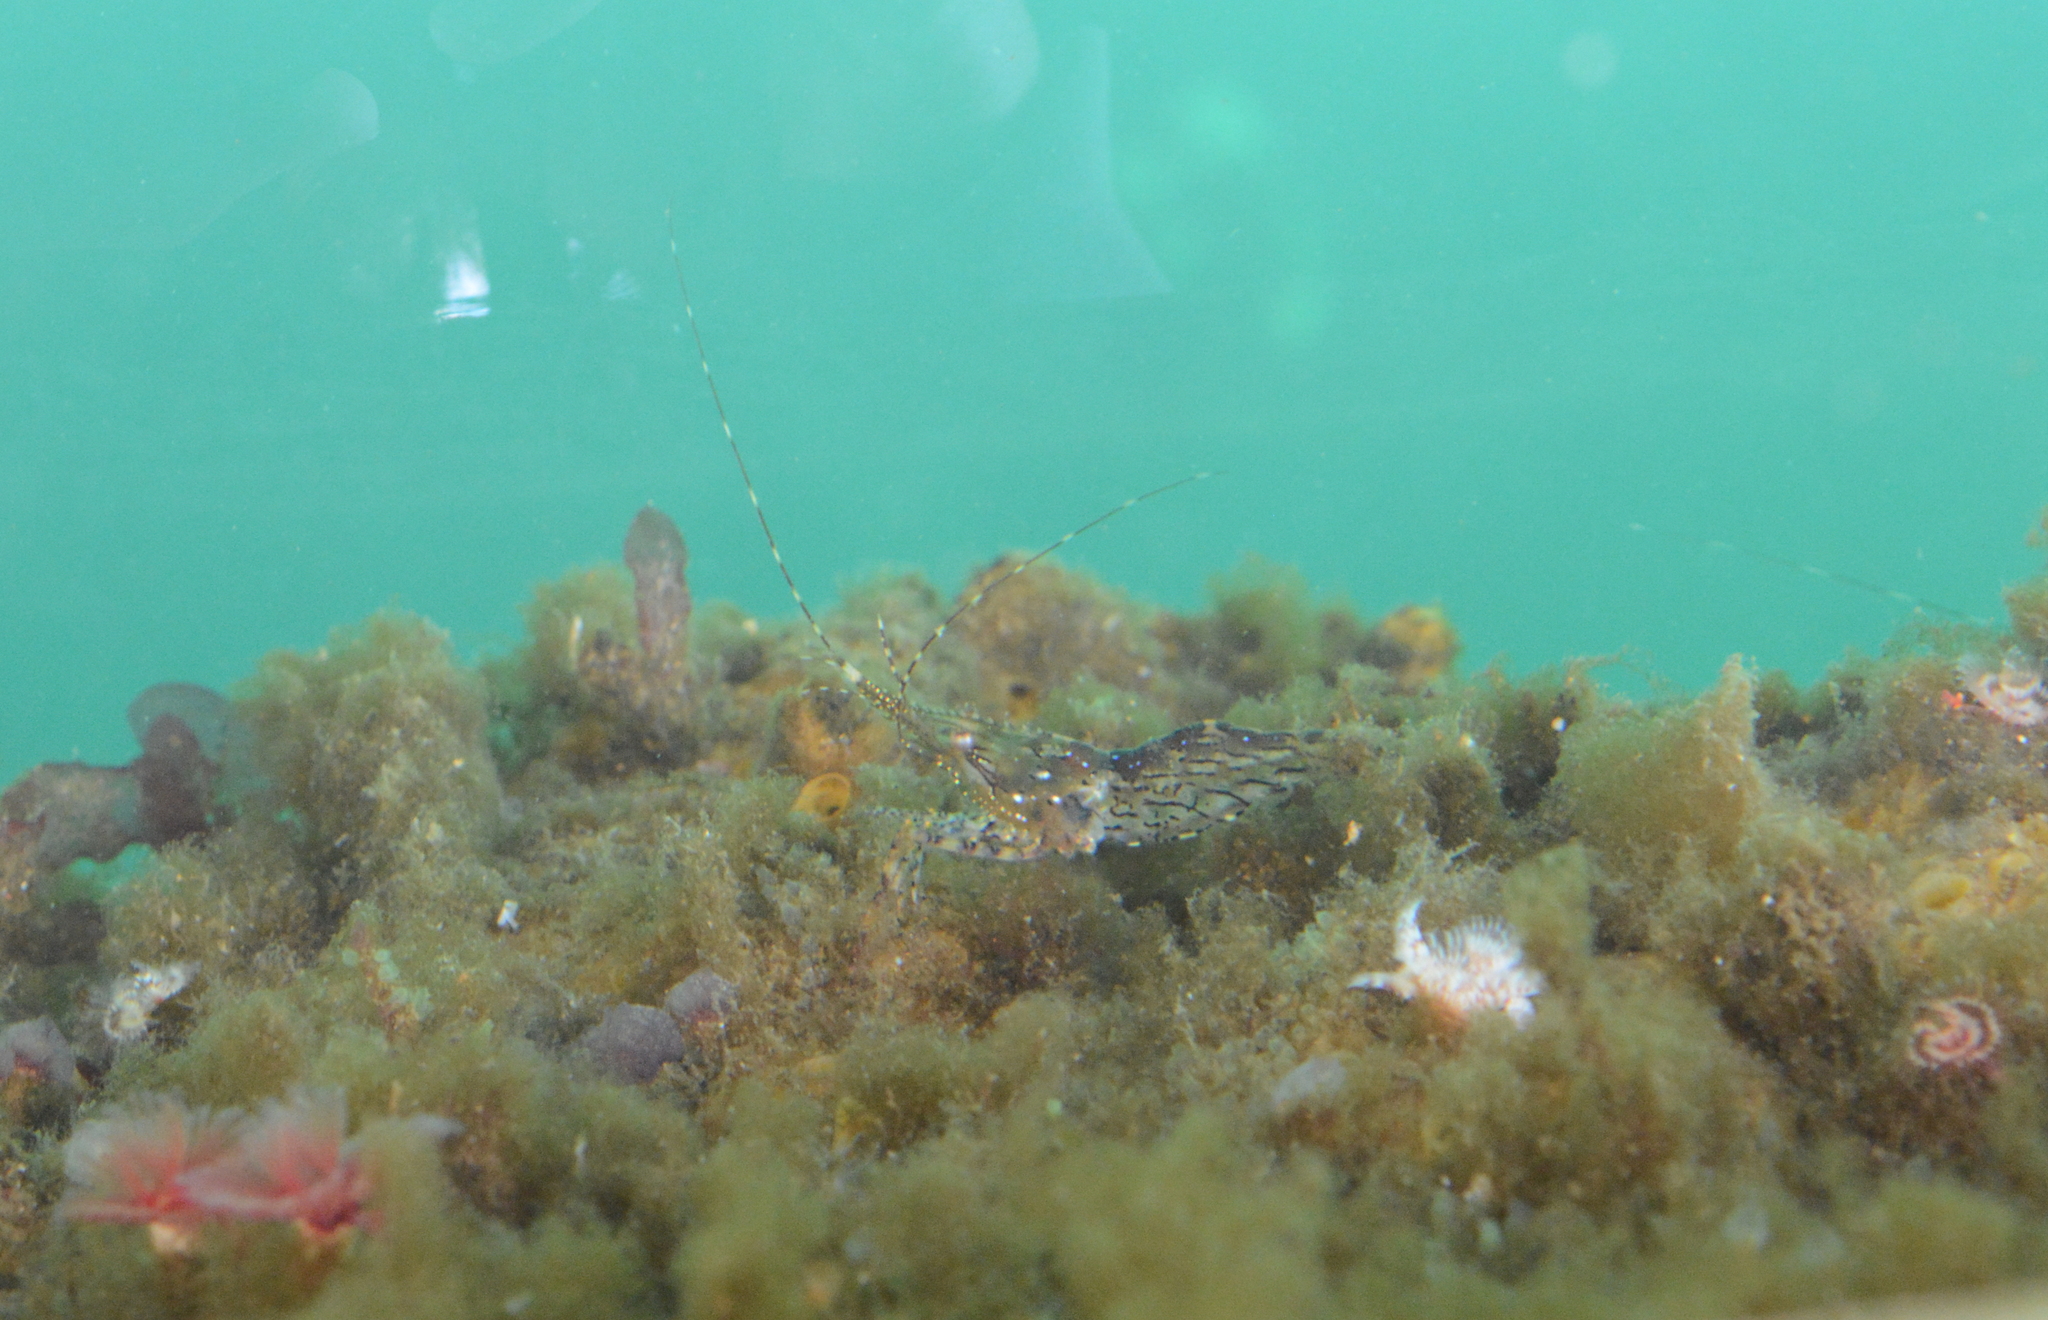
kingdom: Animalia
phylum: Arthropoda
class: Malacostraca
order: Decapoda
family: Pandalidae
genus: Pandalus
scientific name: Pandalus danae
